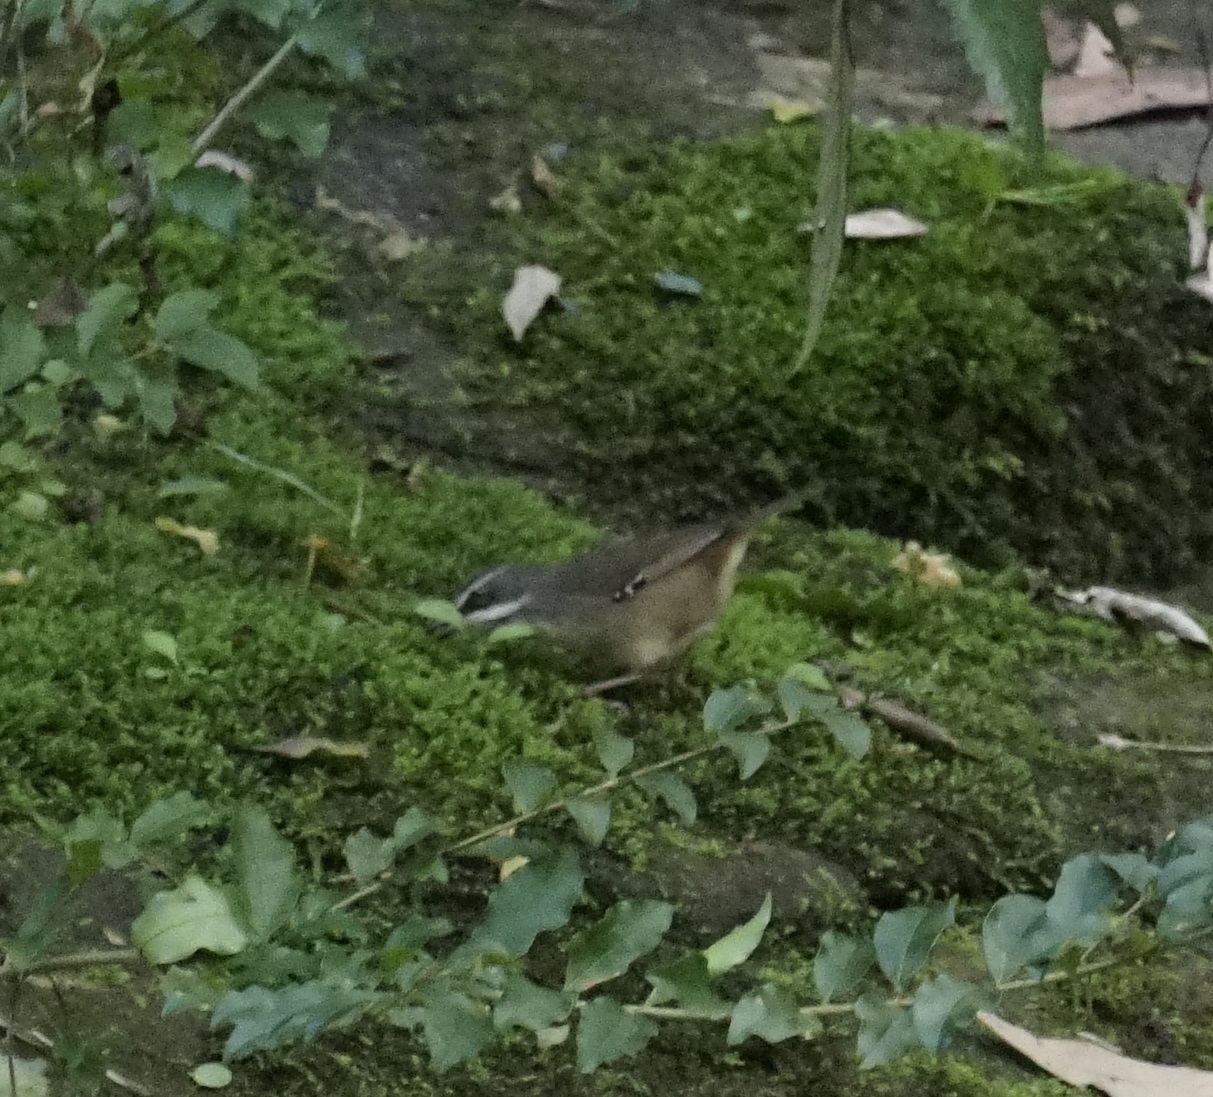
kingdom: Animalia
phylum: Chordata
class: Aves
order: Passeriformes
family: Acanthizidae
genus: Sericornis
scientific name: Sericornis frontalis
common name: White-browed scrubwren
